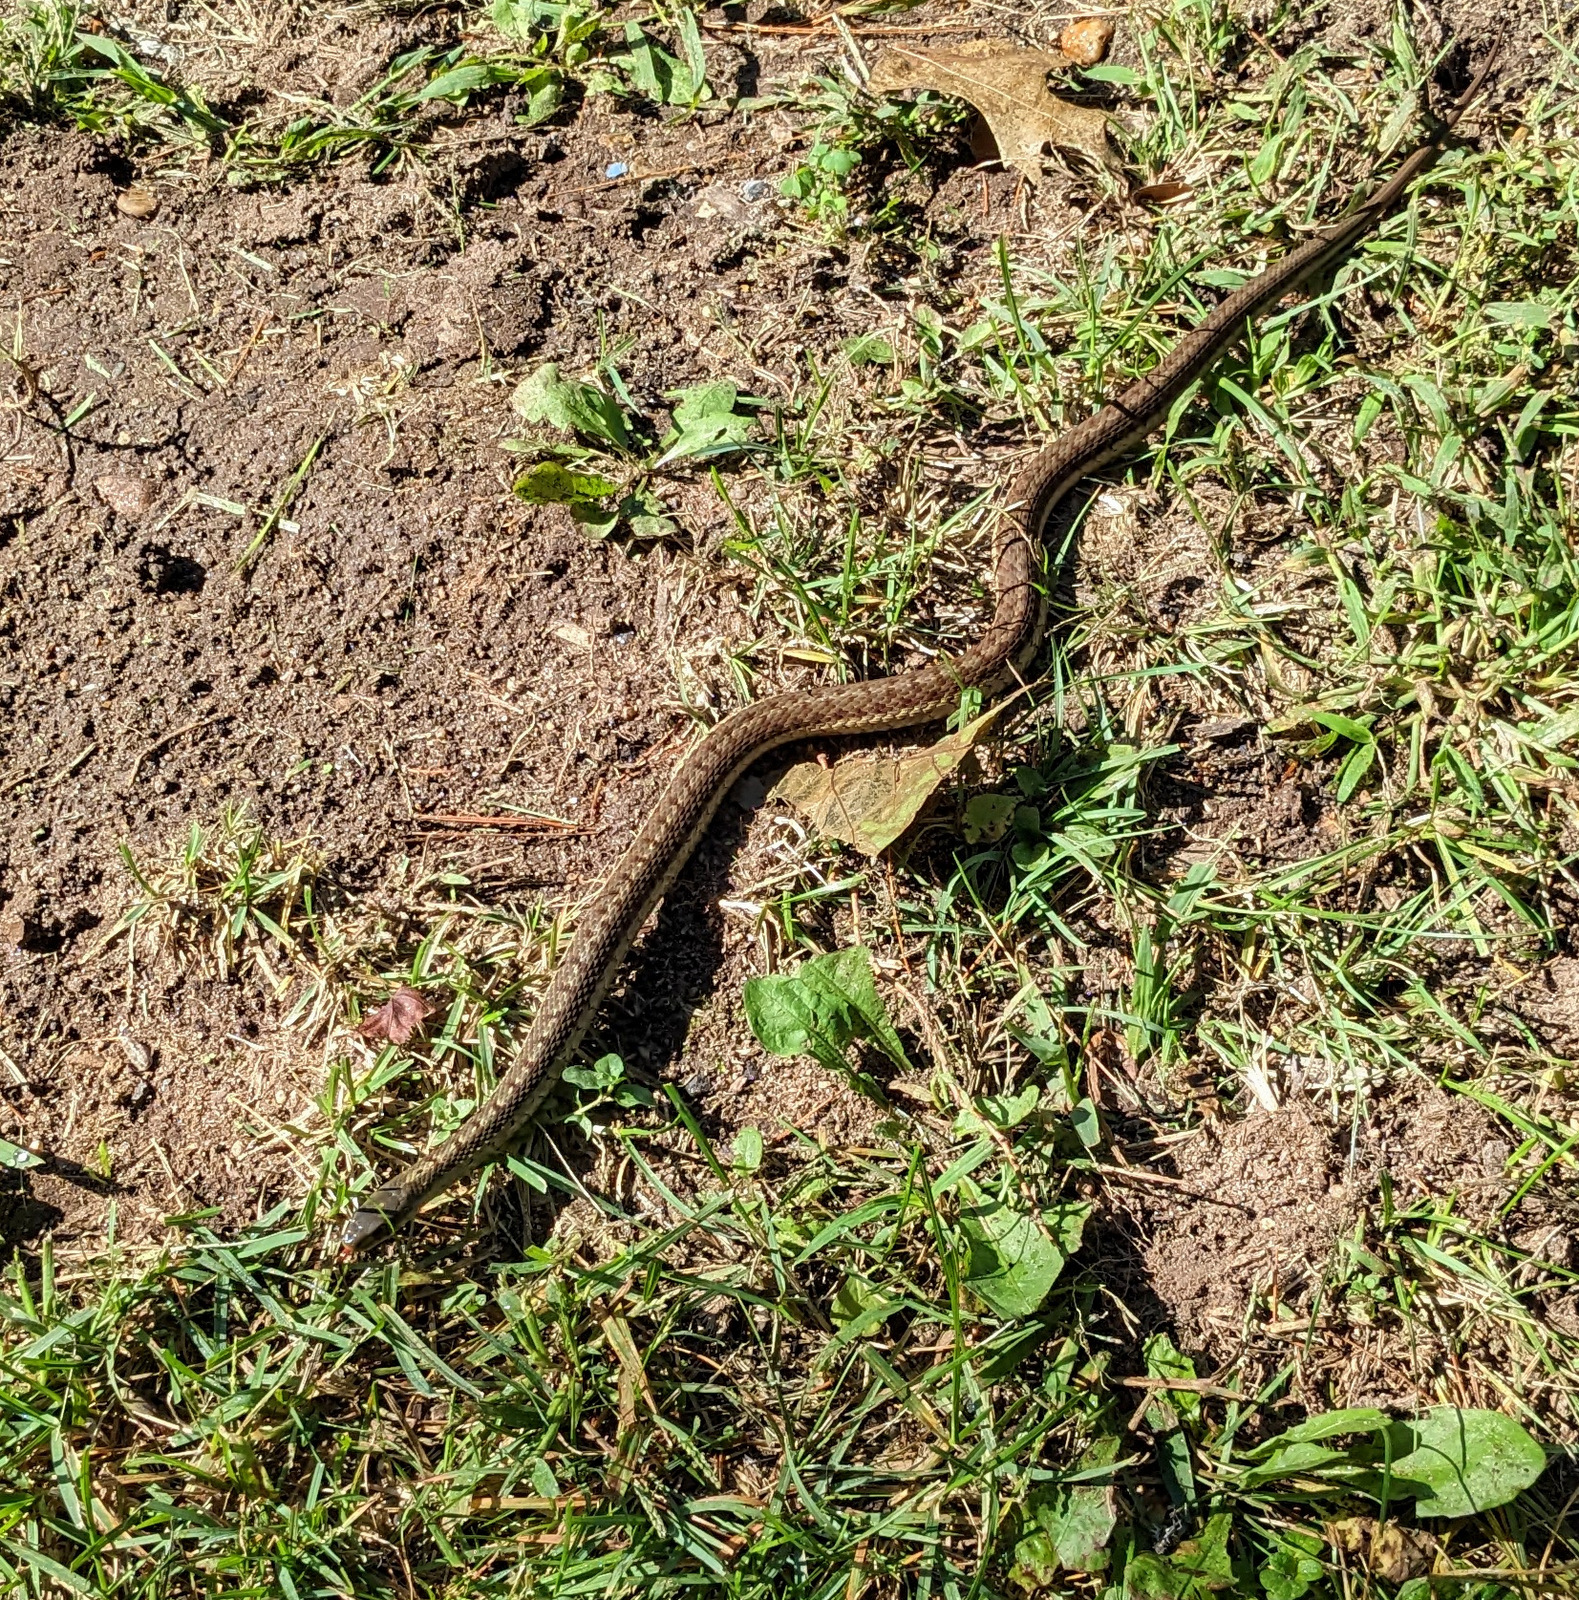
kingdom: Animalia
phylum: Chordata
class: Squamata
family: Colubridae
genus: Thamnophis
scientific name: Thamnophis sirtalis
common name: Common garter snake
